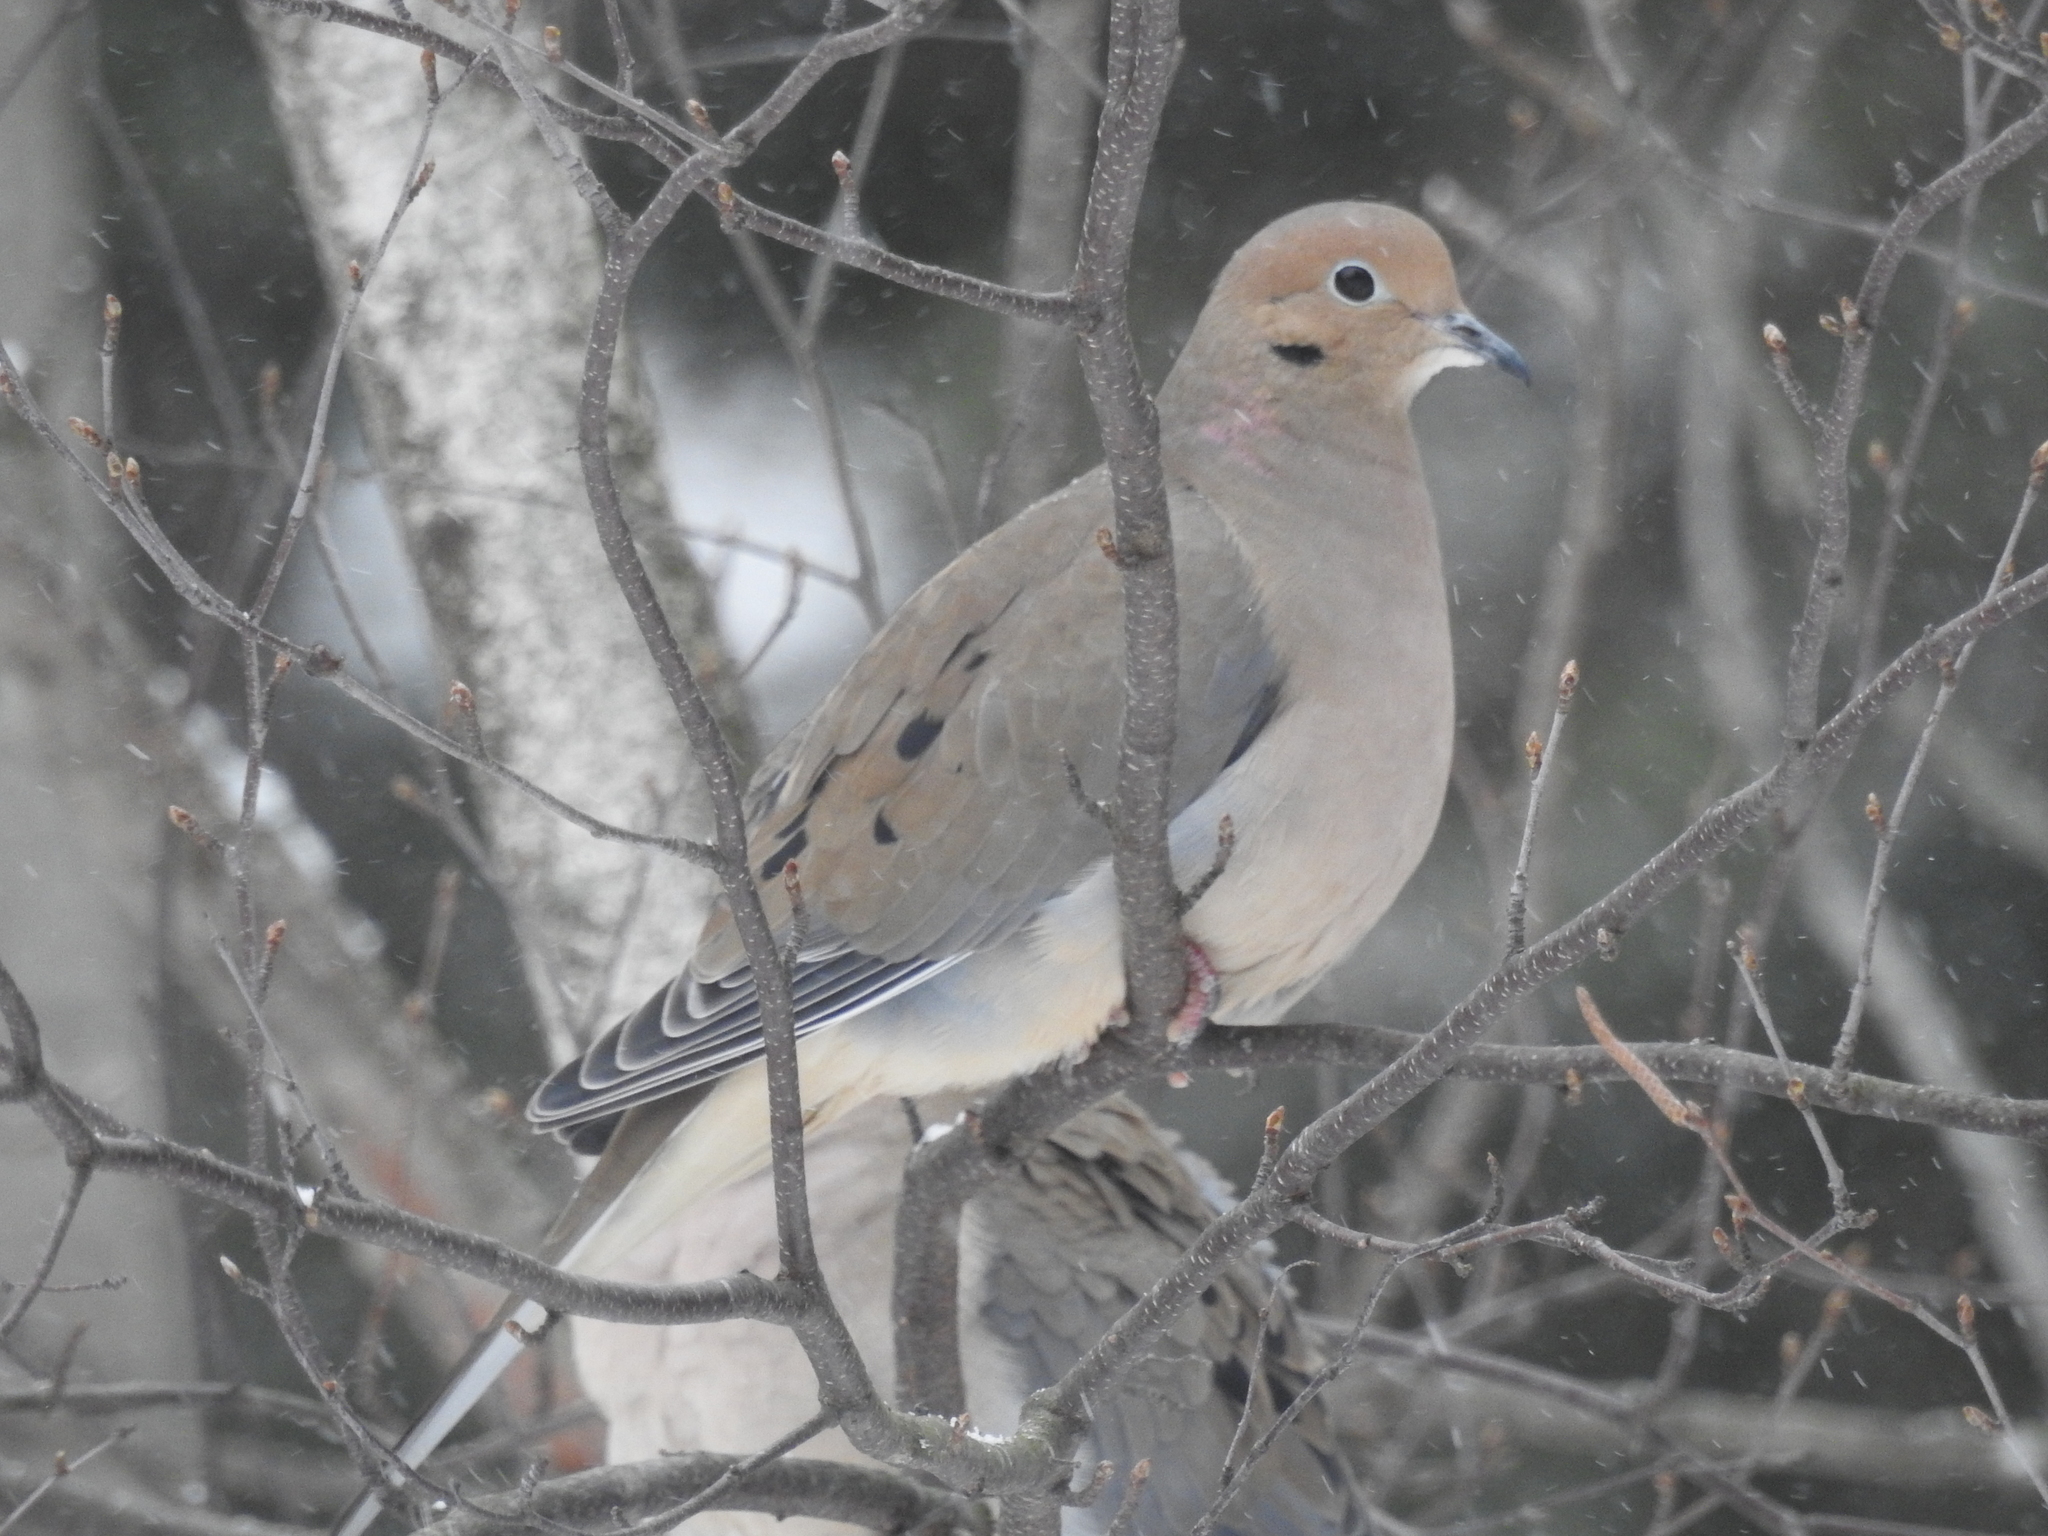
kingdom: Animalia
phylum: Chordata
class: Aves
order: Columbiformes
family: Columbidae
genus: Zenaida
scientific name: Zenaida macroura
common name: Mourning dove
